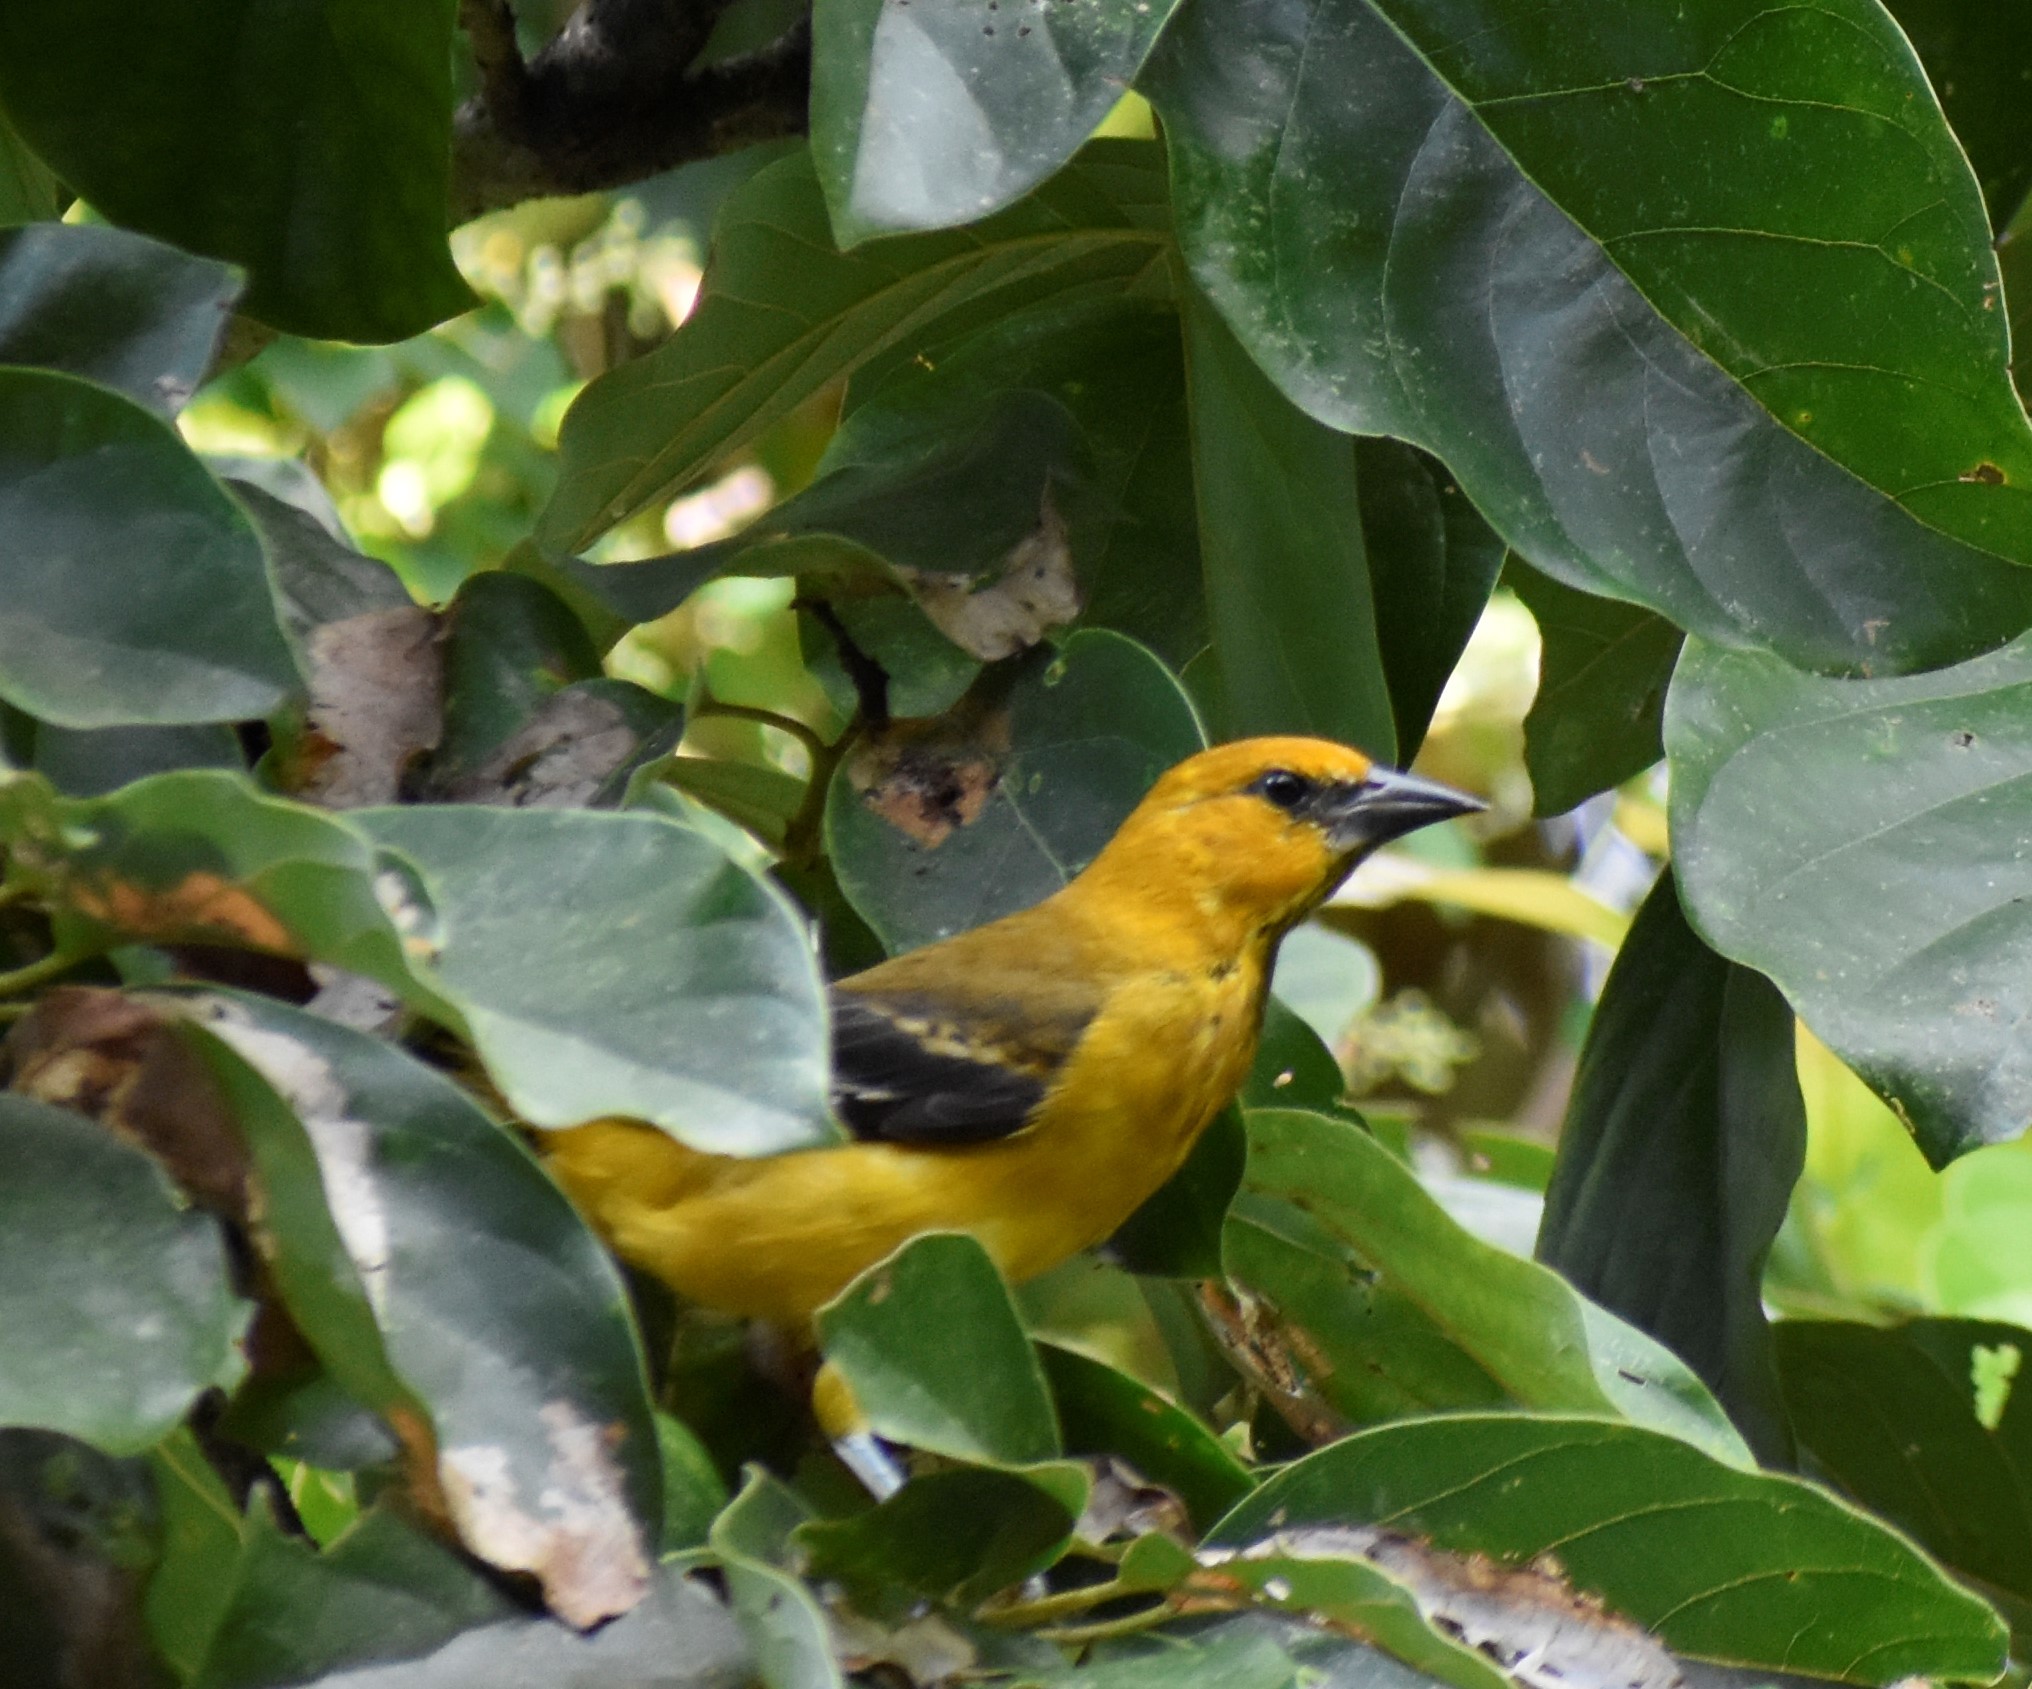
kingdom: Animalia
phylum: Chordata
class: Aves
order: Passeriformes
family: Icteridae
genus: Icterus
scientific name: Icterus gularis
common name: Altamira oriole
